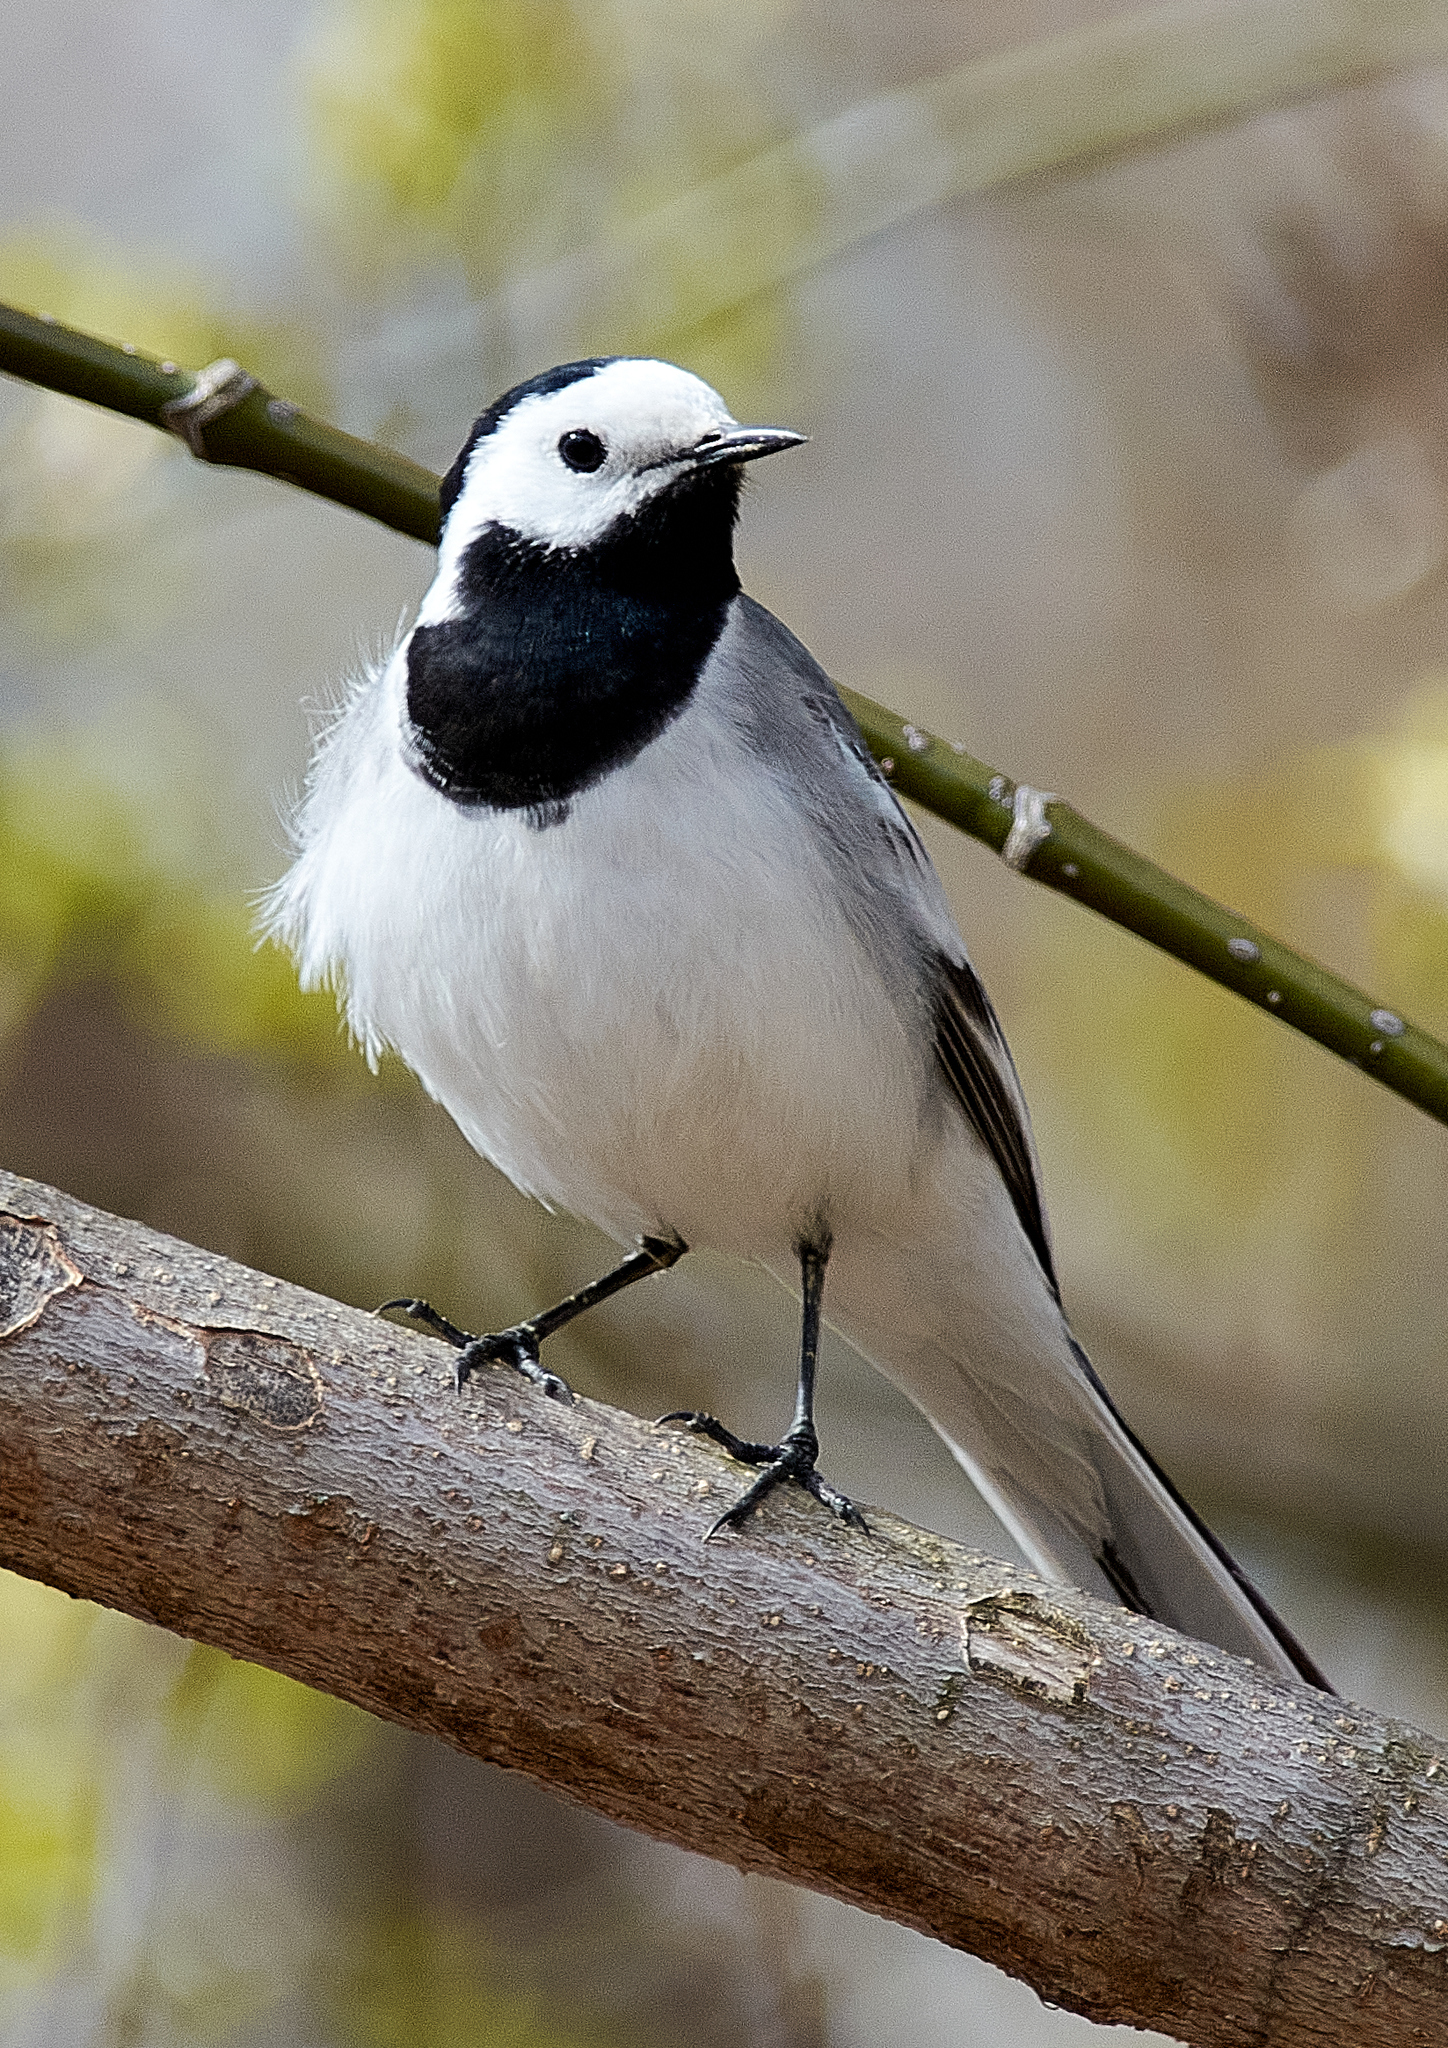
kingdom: Animalia
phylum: Chordata
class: Aves
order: Passeriformes
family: Motacillidae
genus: Motacilla
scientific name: Motacilla alba
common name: White wagtail
